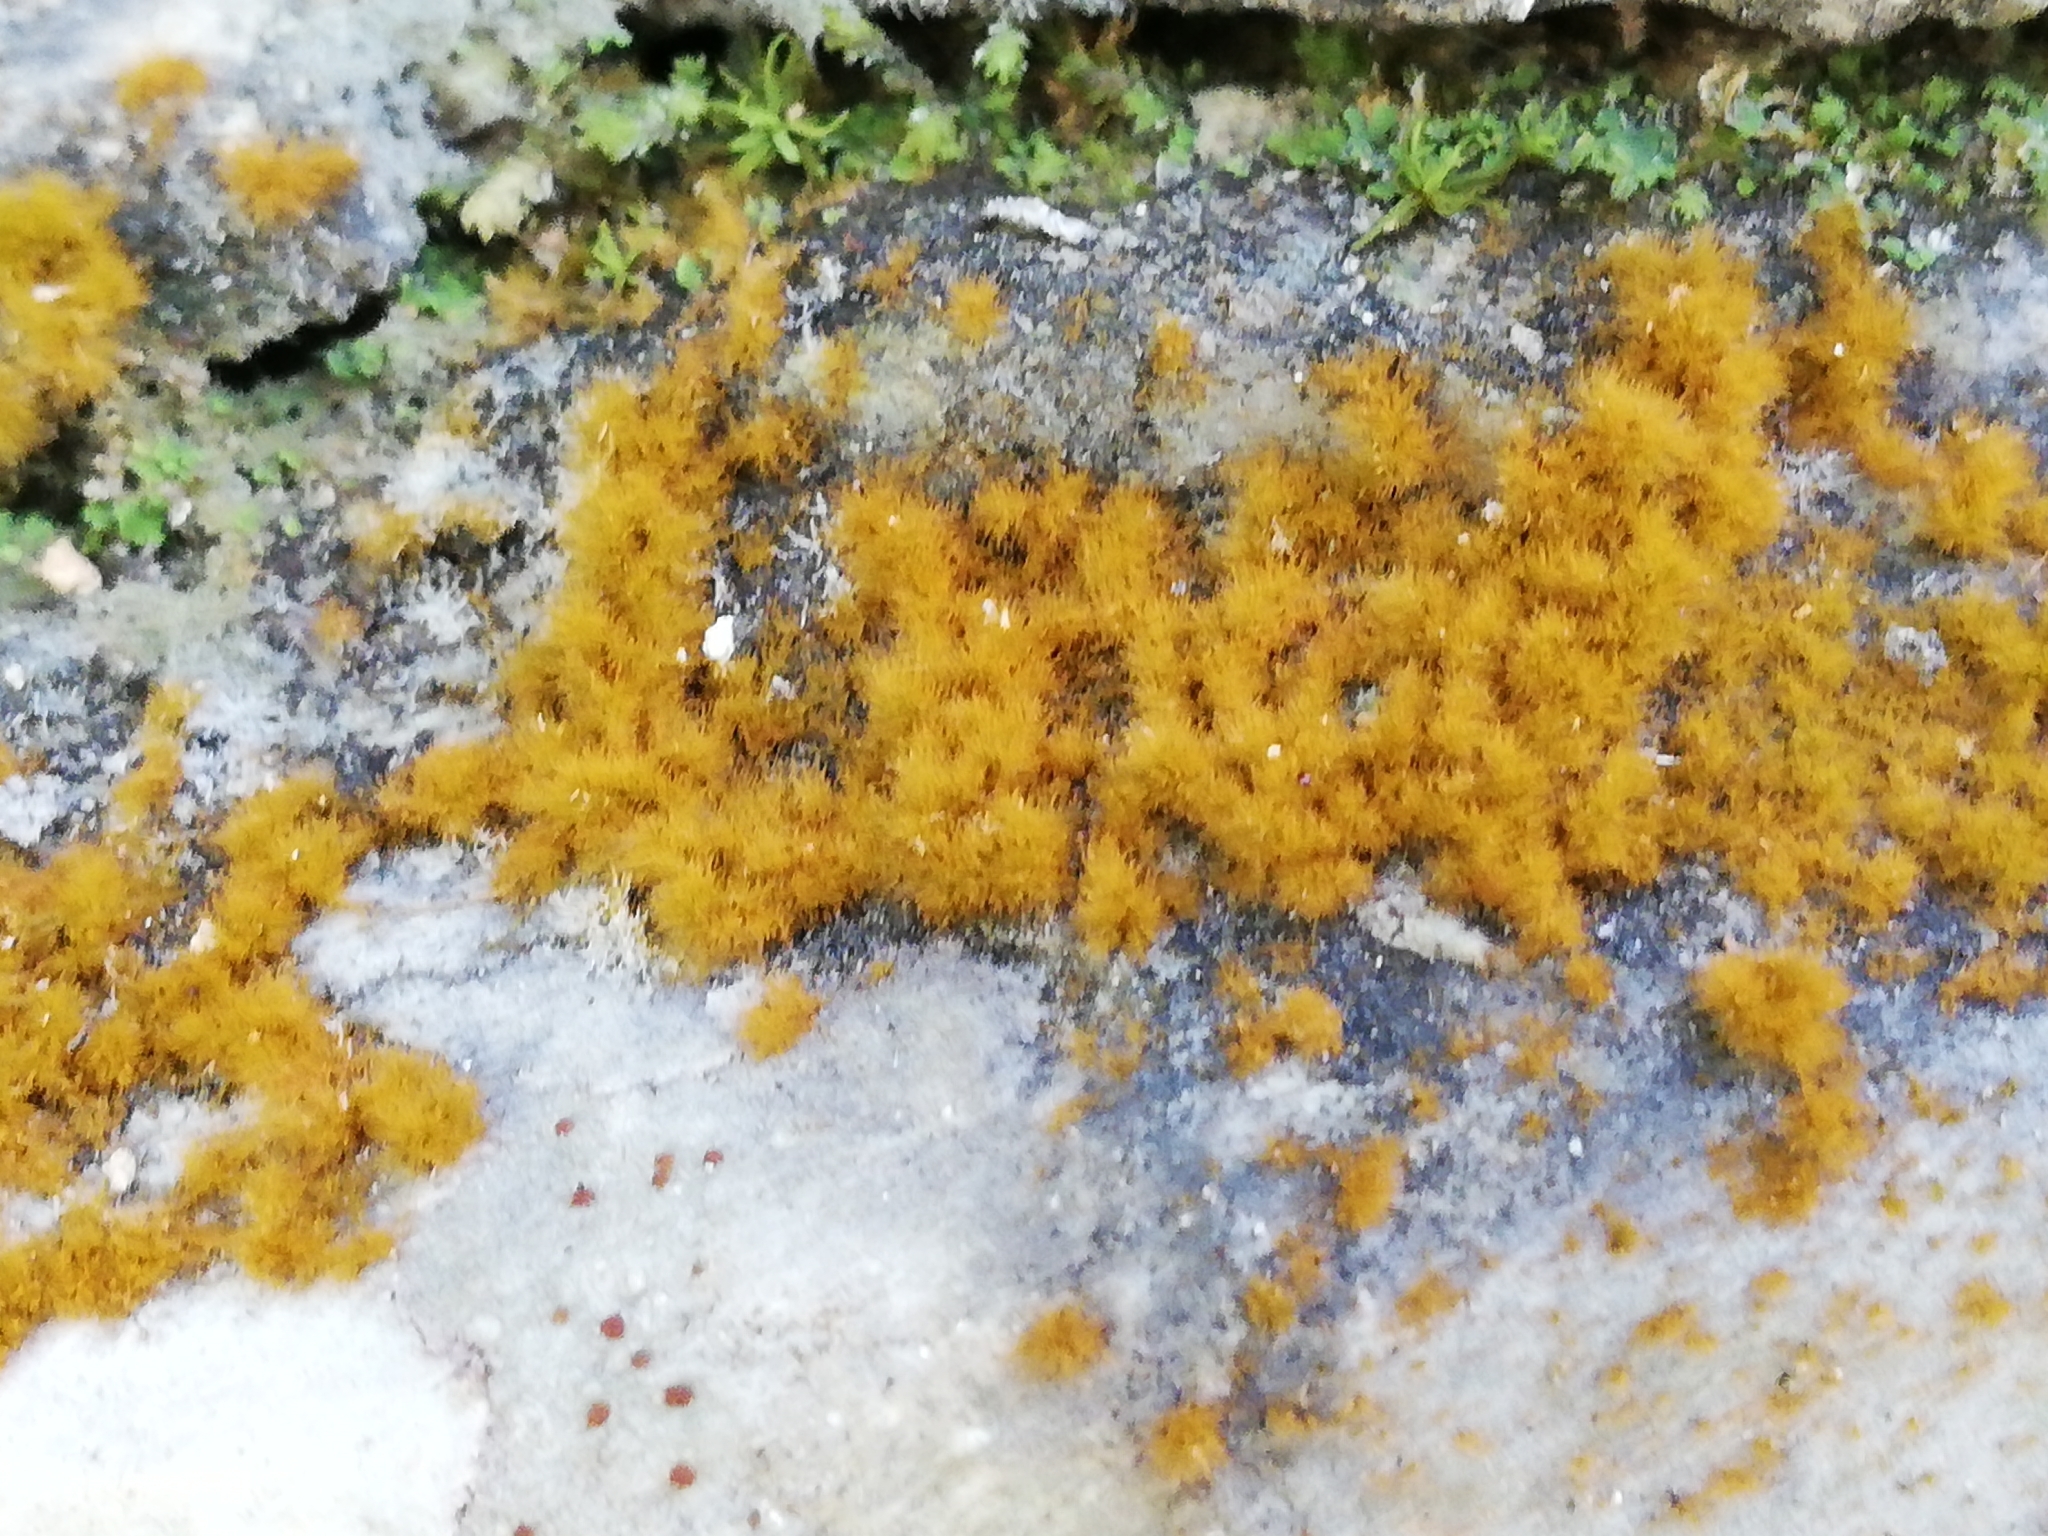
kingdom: Plantae
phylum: Chlorophyta
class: Ulvophyceae
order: Trentepohliales
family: Trentepohliaceae
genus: Trentepohlia
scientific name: Trentepohlia aurea
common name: Orange rock hair
